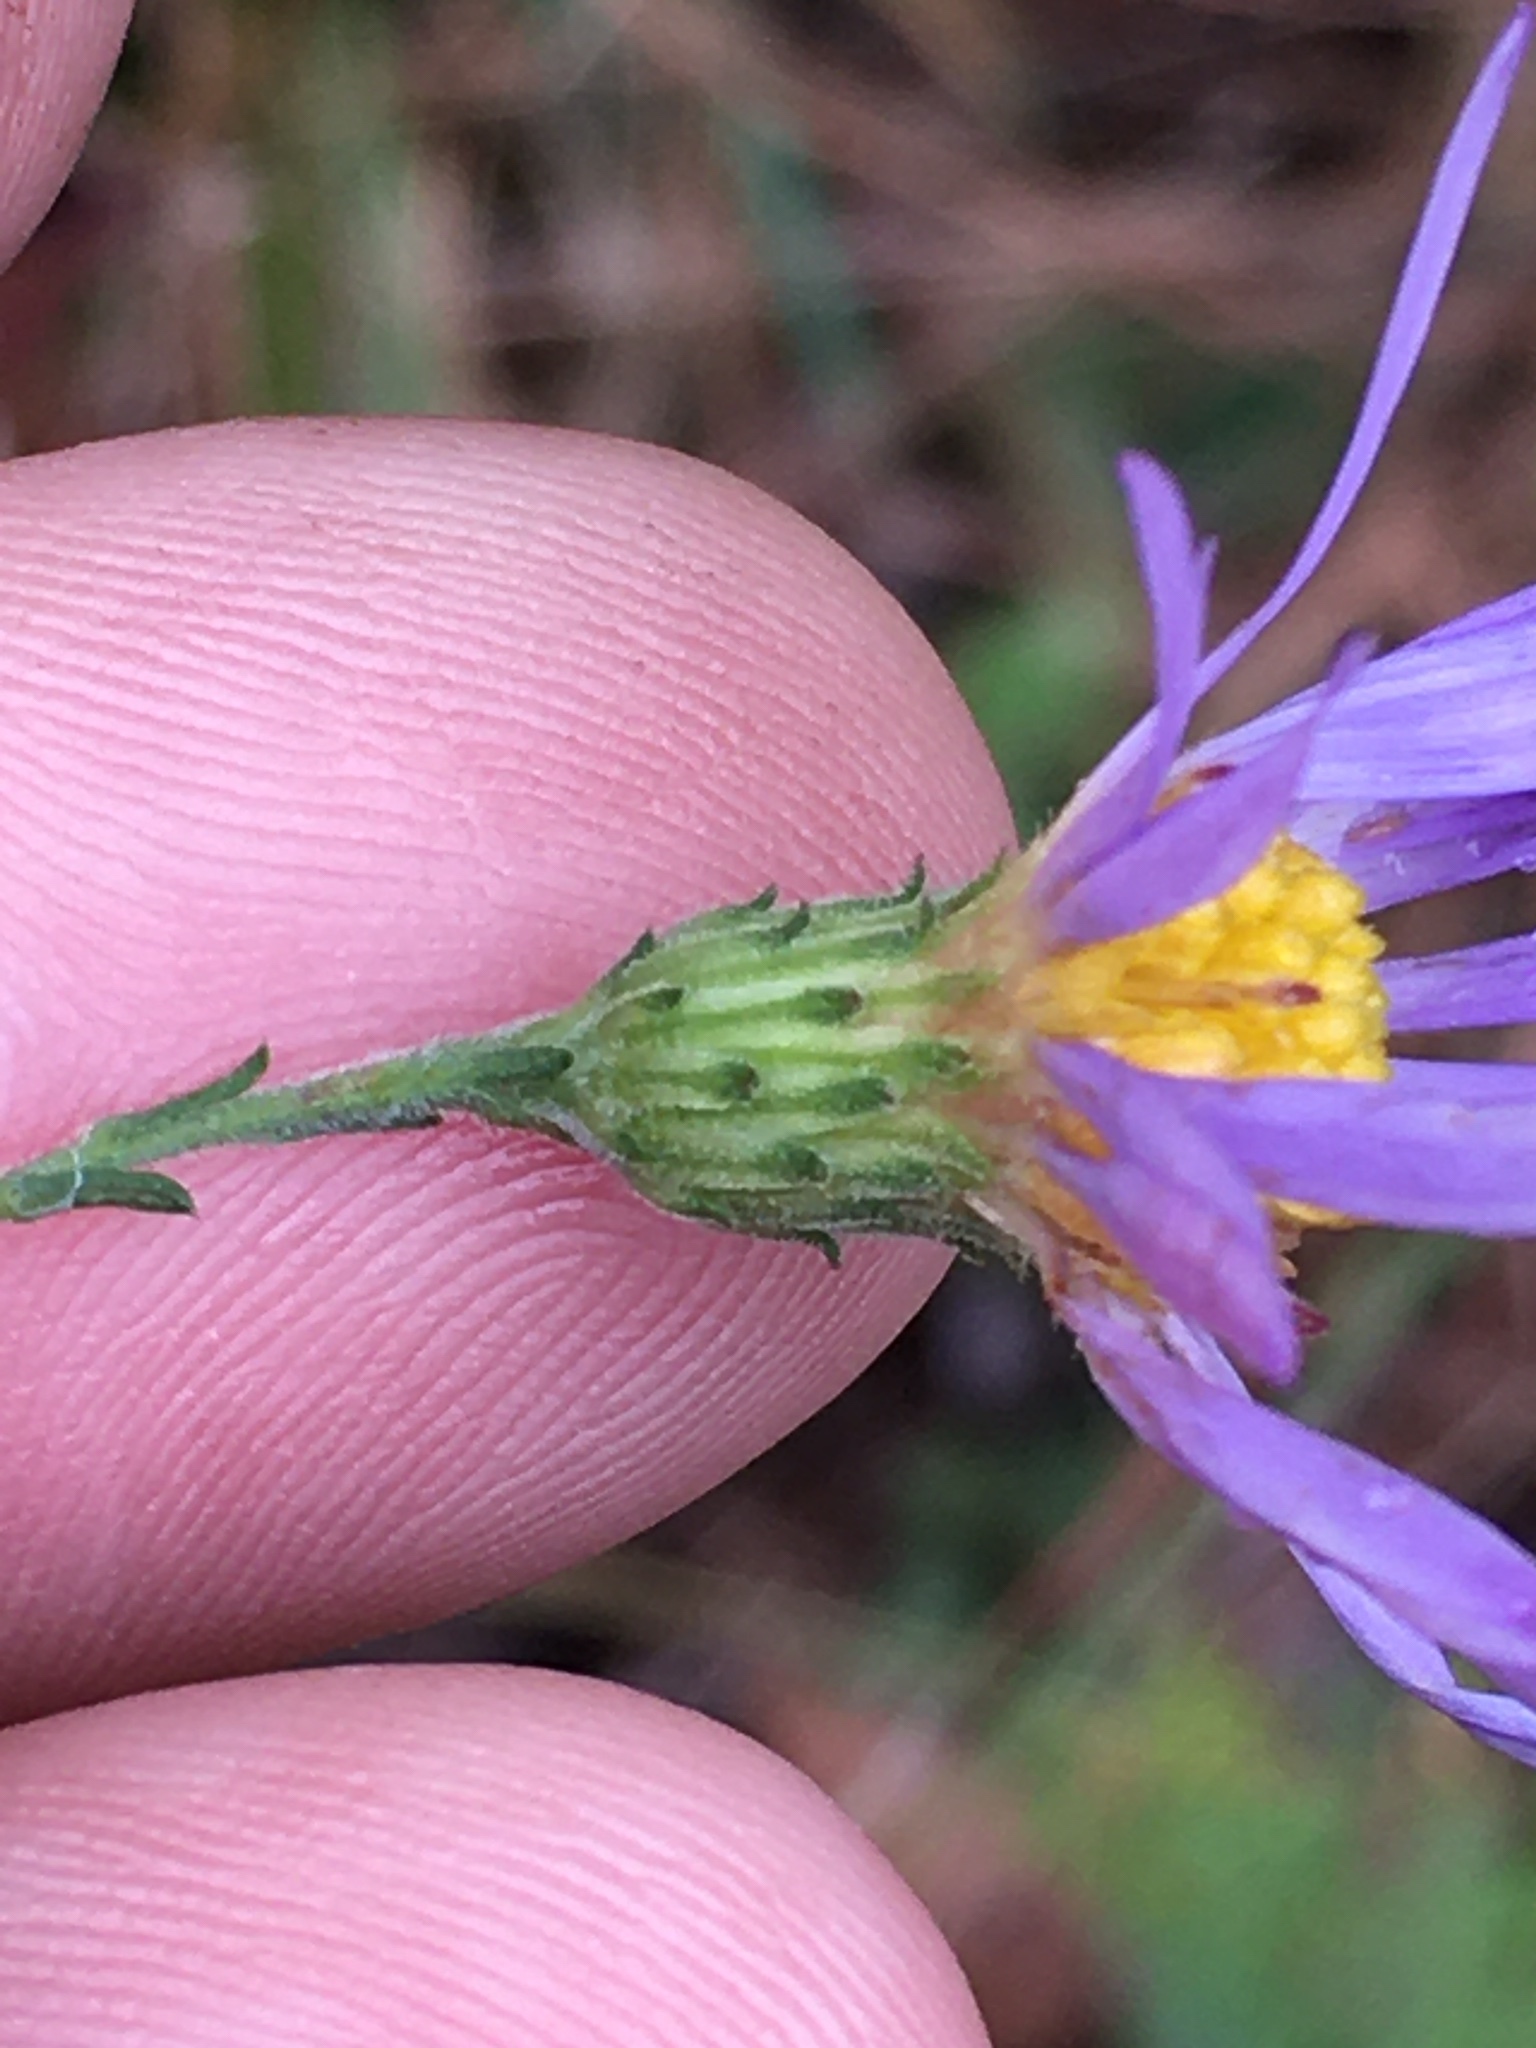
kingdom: Plantae
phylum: Tracheophyta
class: Magnoliopsida
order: Asterales
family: Asteraceae
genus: Symphyotrichum
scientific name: Symphyotrichum patens
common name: Late purple aster
